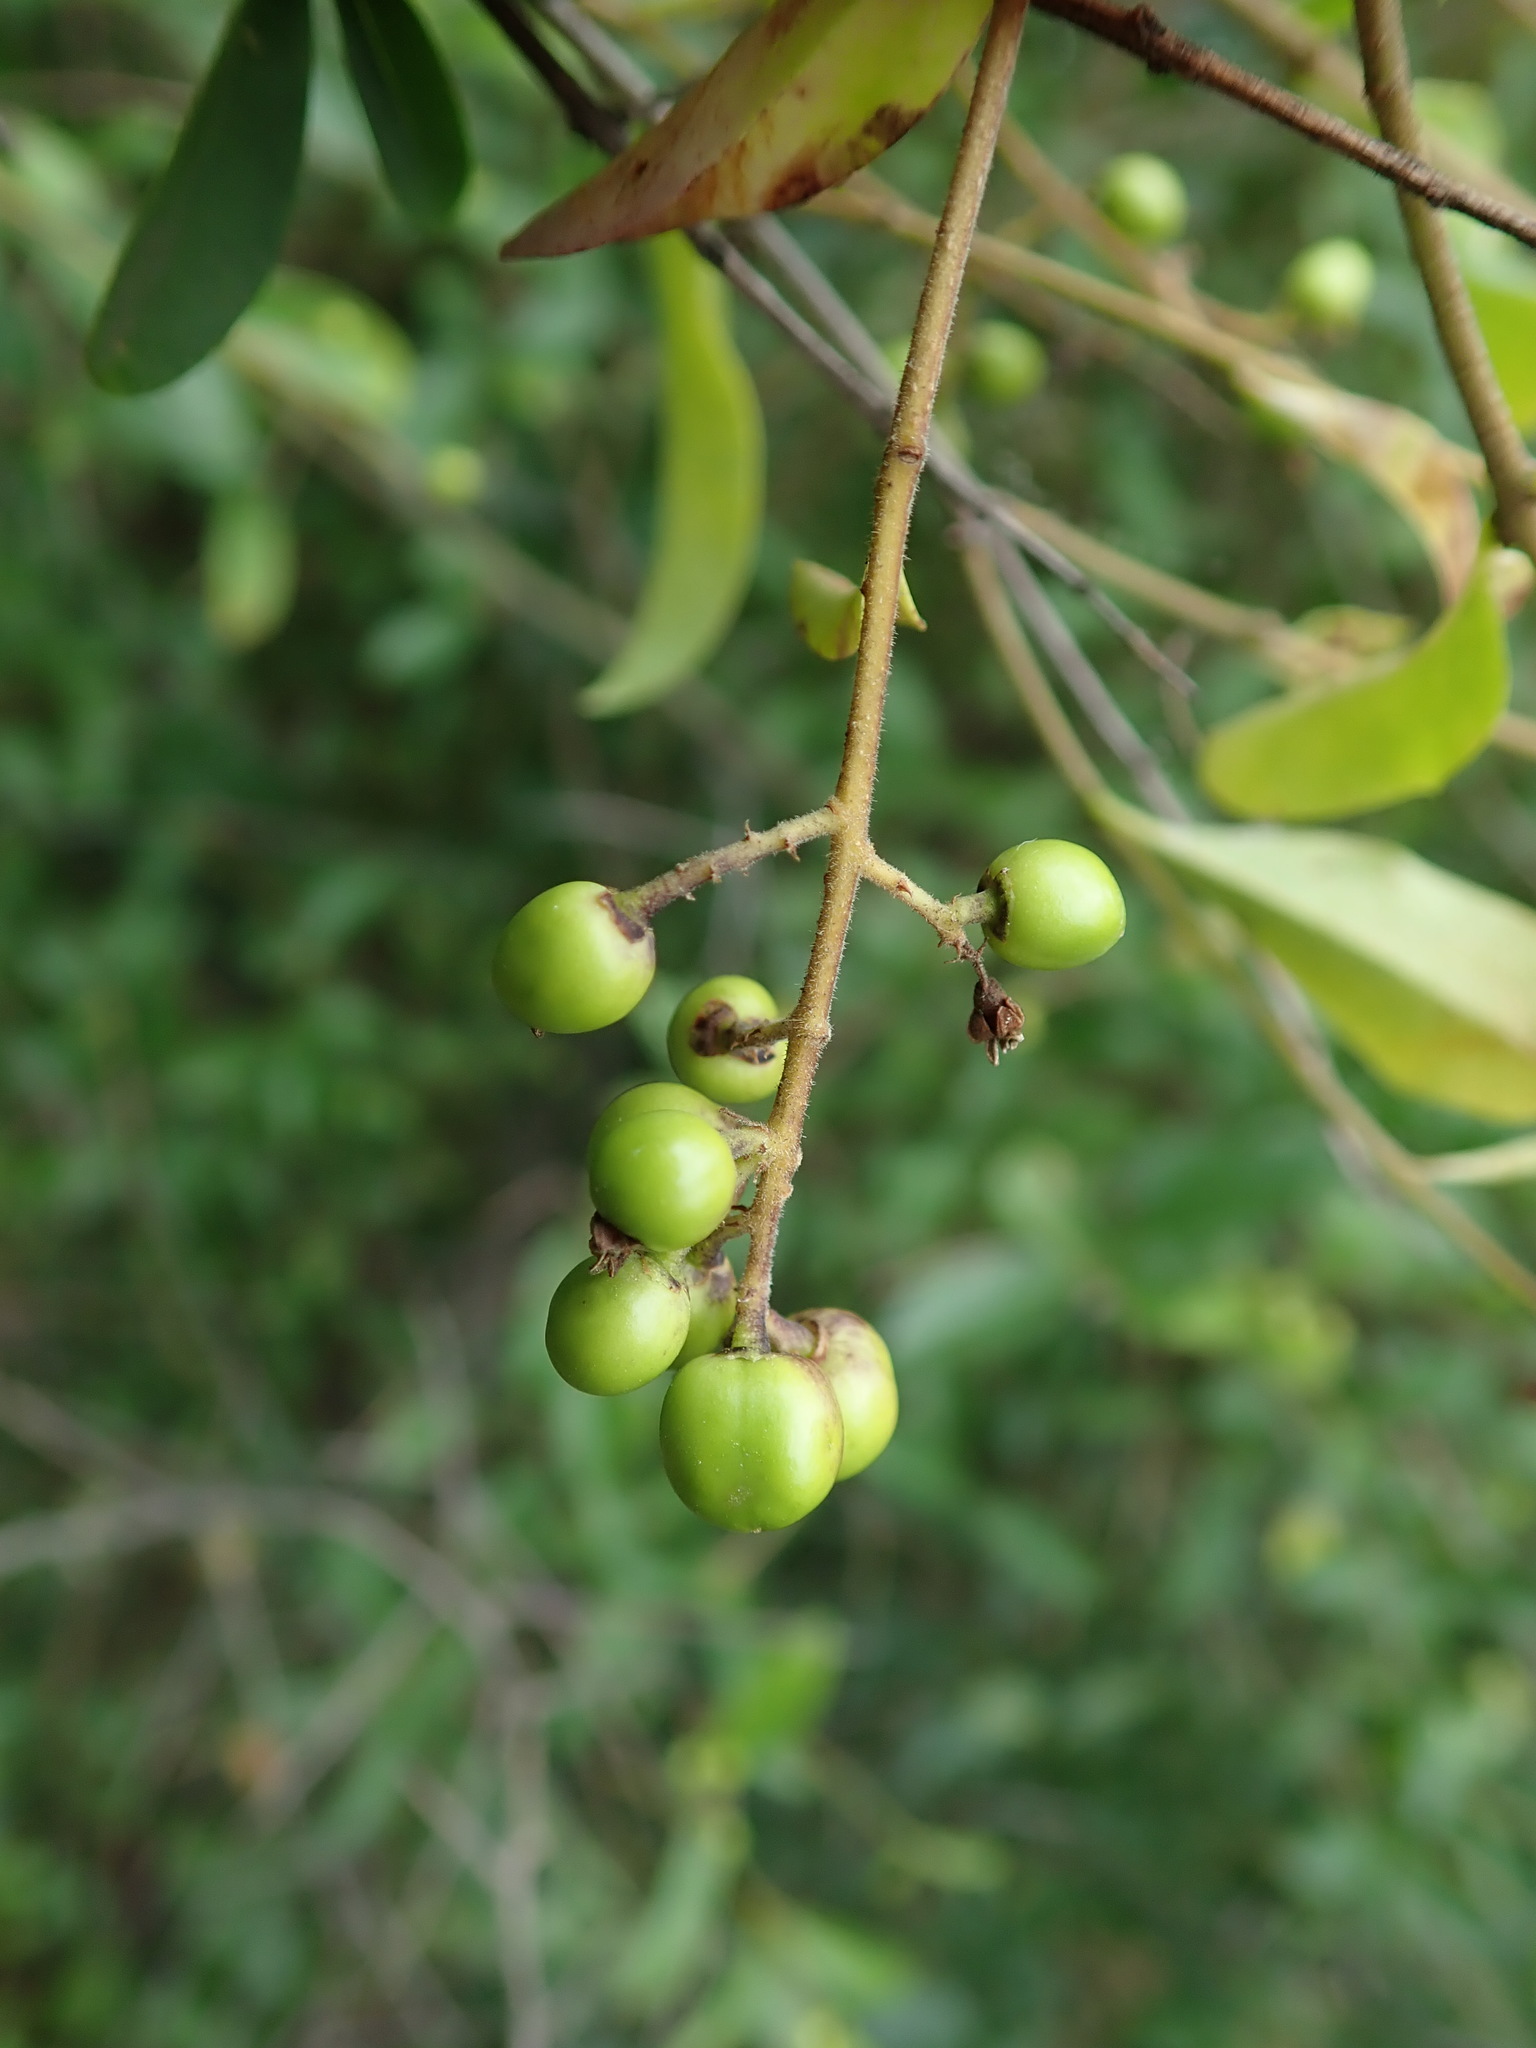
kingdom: Plantae
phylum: Tracheophyta
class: Magnoliopsida
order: Lamiales
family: Oleaceae
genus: Ligustrum
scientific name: Ligustrum vulgare
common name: Wild privet
